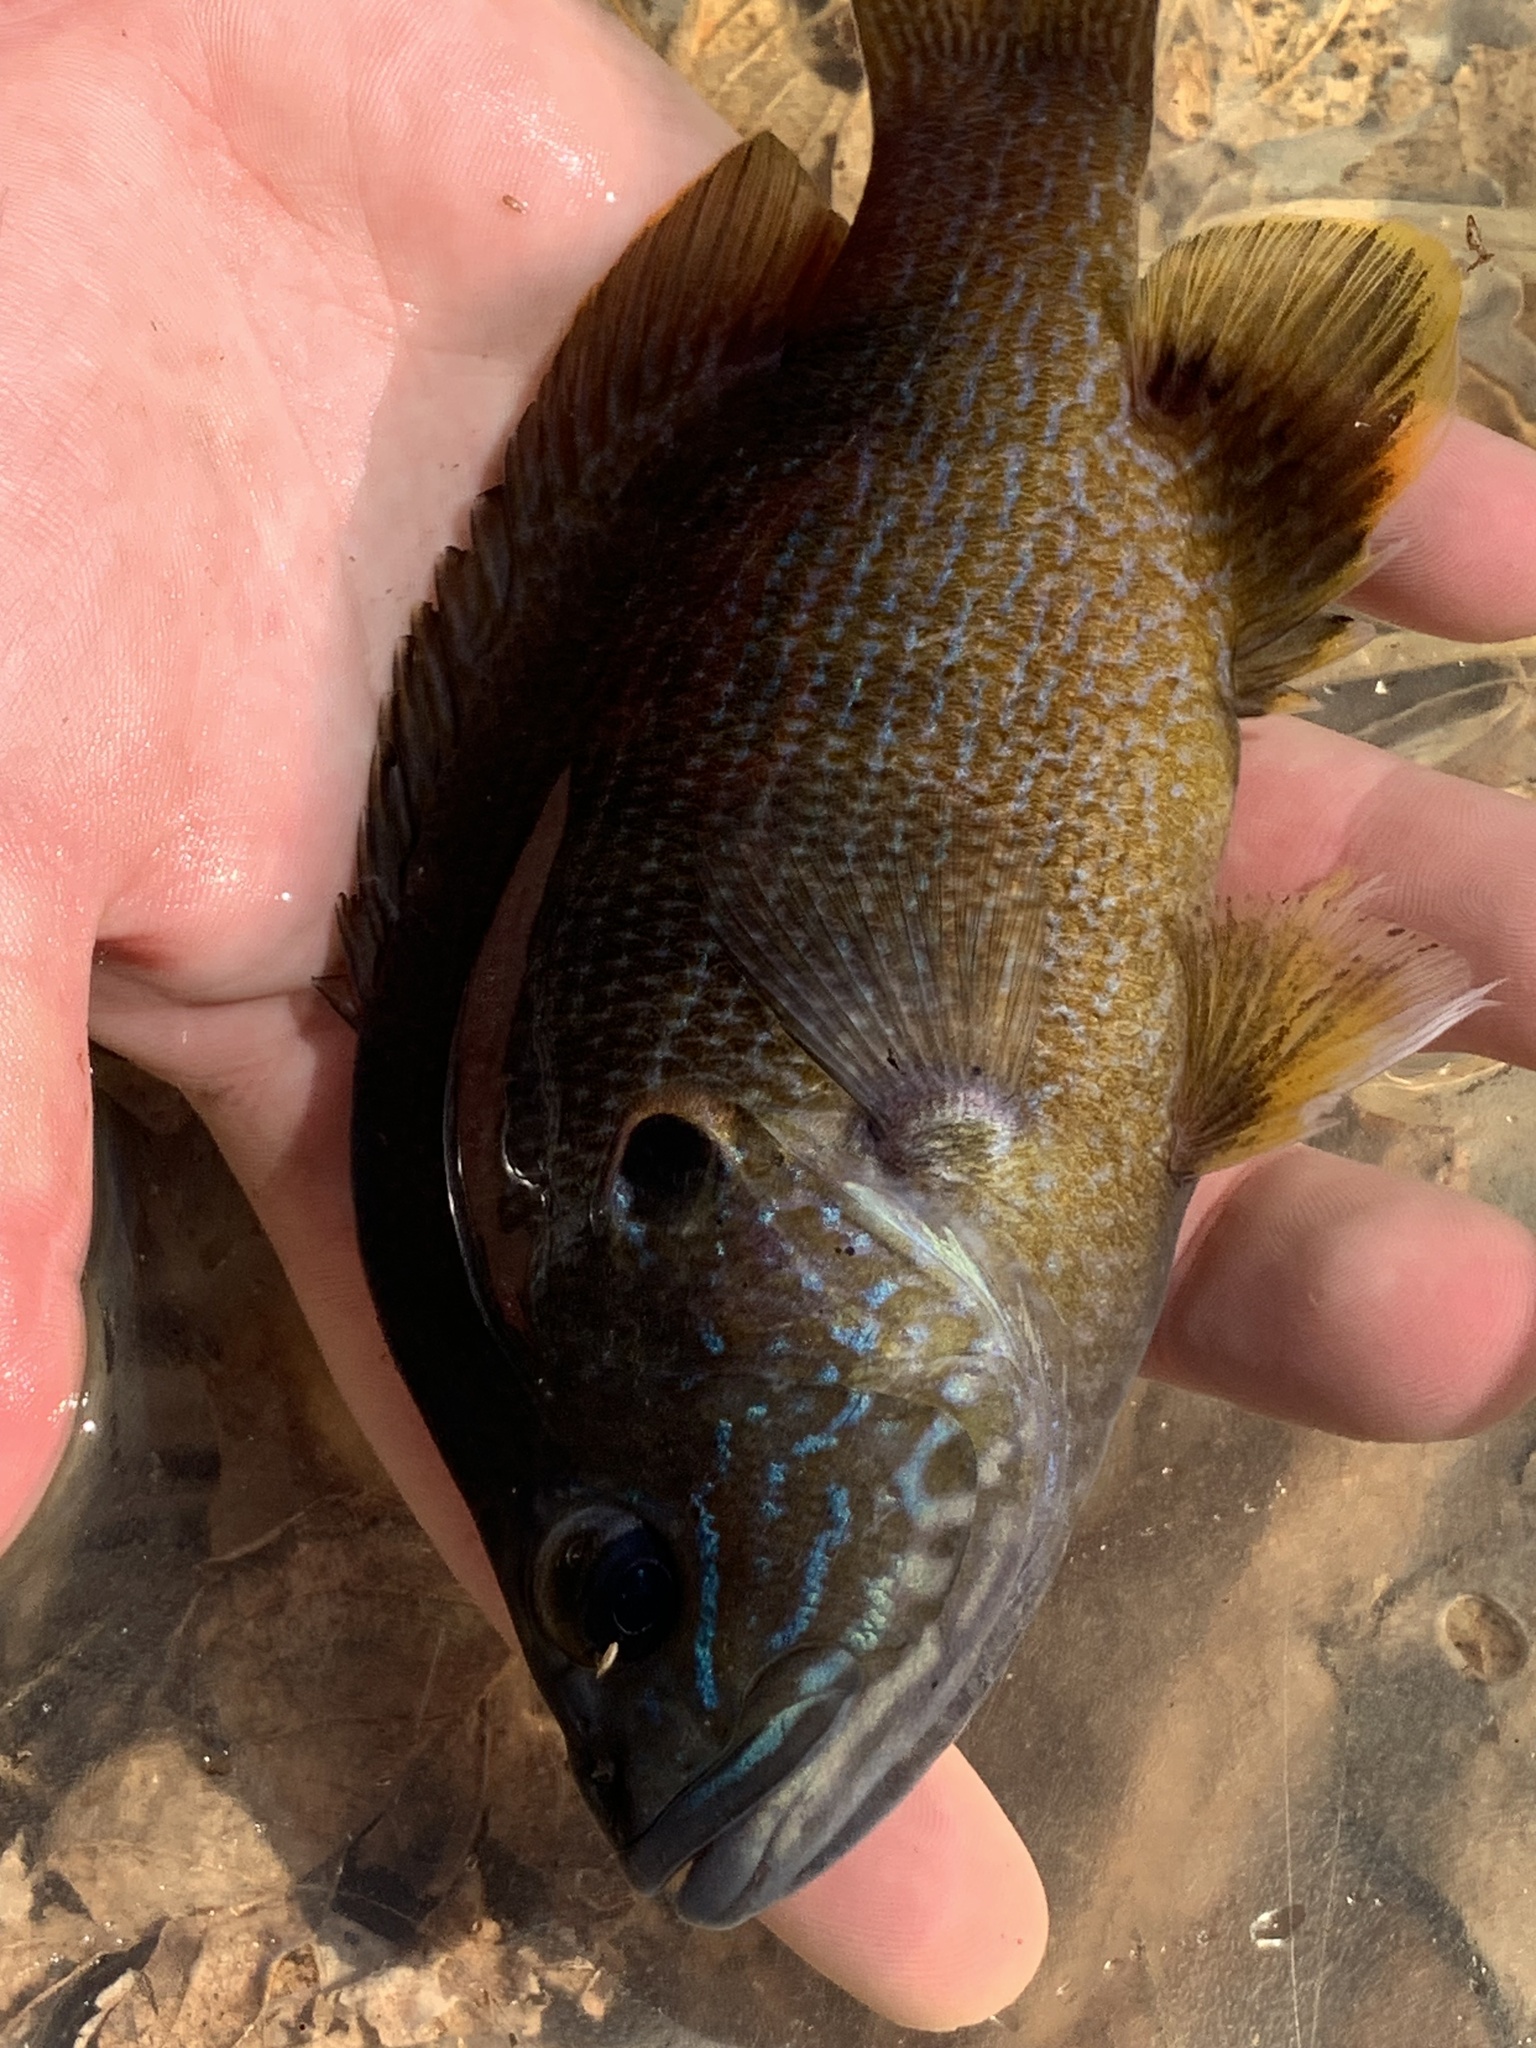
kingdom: Animalia
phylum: Chordata
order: Perciformes
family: Centrarchidae
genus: Lepomis
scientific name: Lepomis cyanellus
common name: Green sunfish
